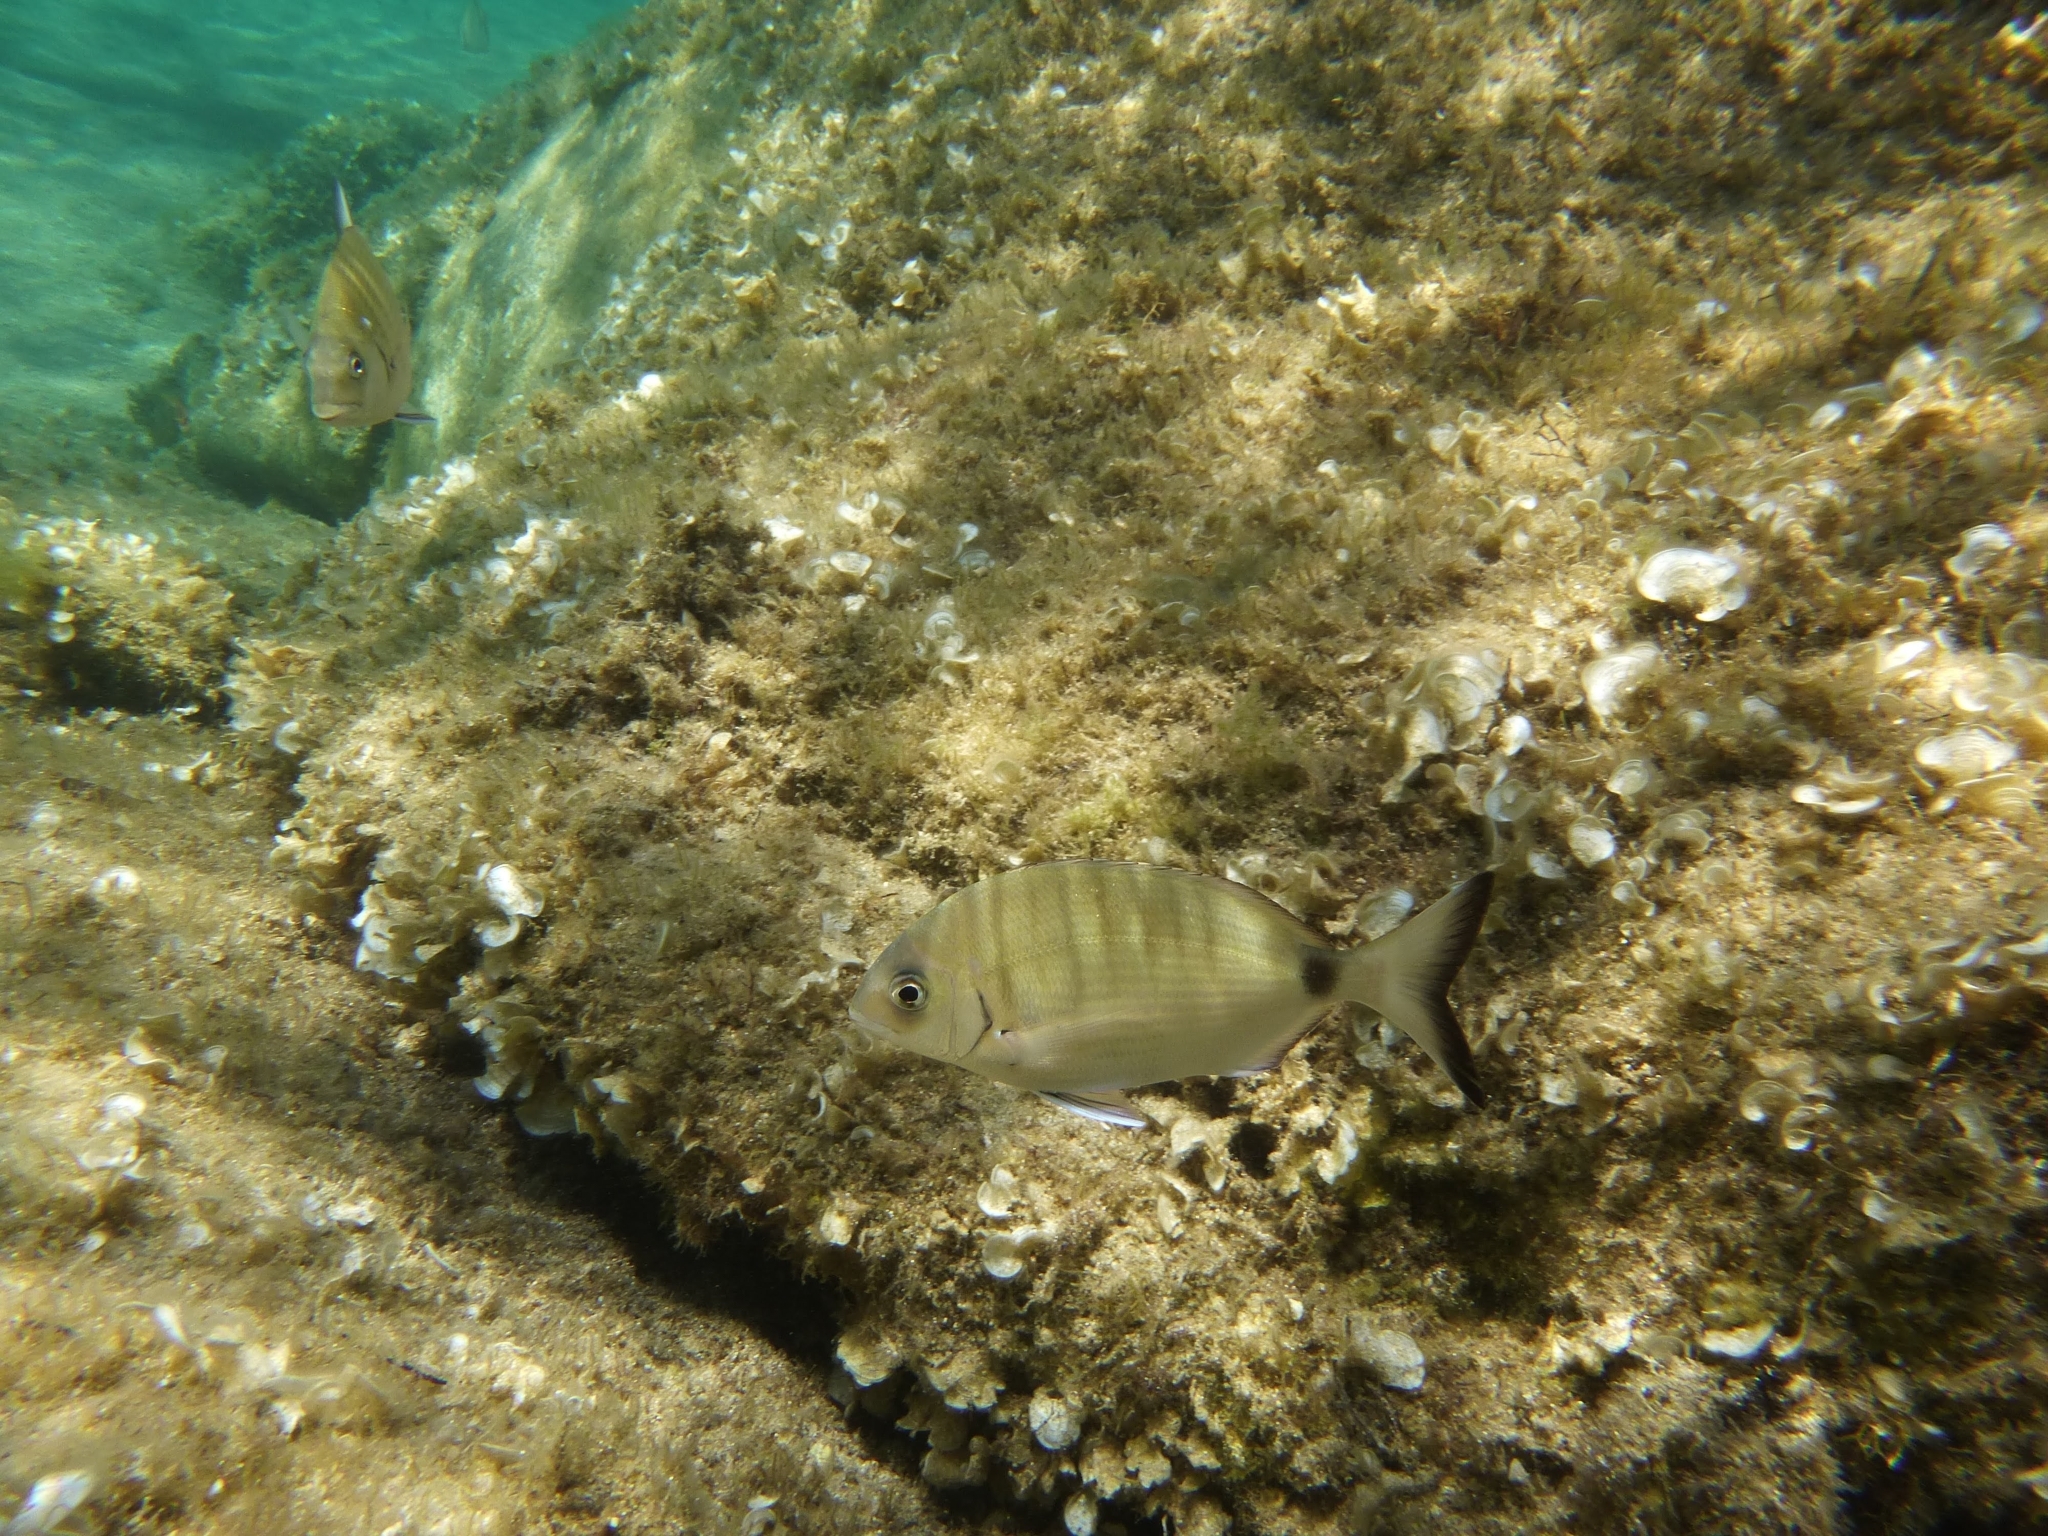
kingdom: Animalia
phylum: Chordata
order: Perciformes
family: Sparidae
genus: Diplodus
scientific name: Diplodus sargus
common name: White seabream
